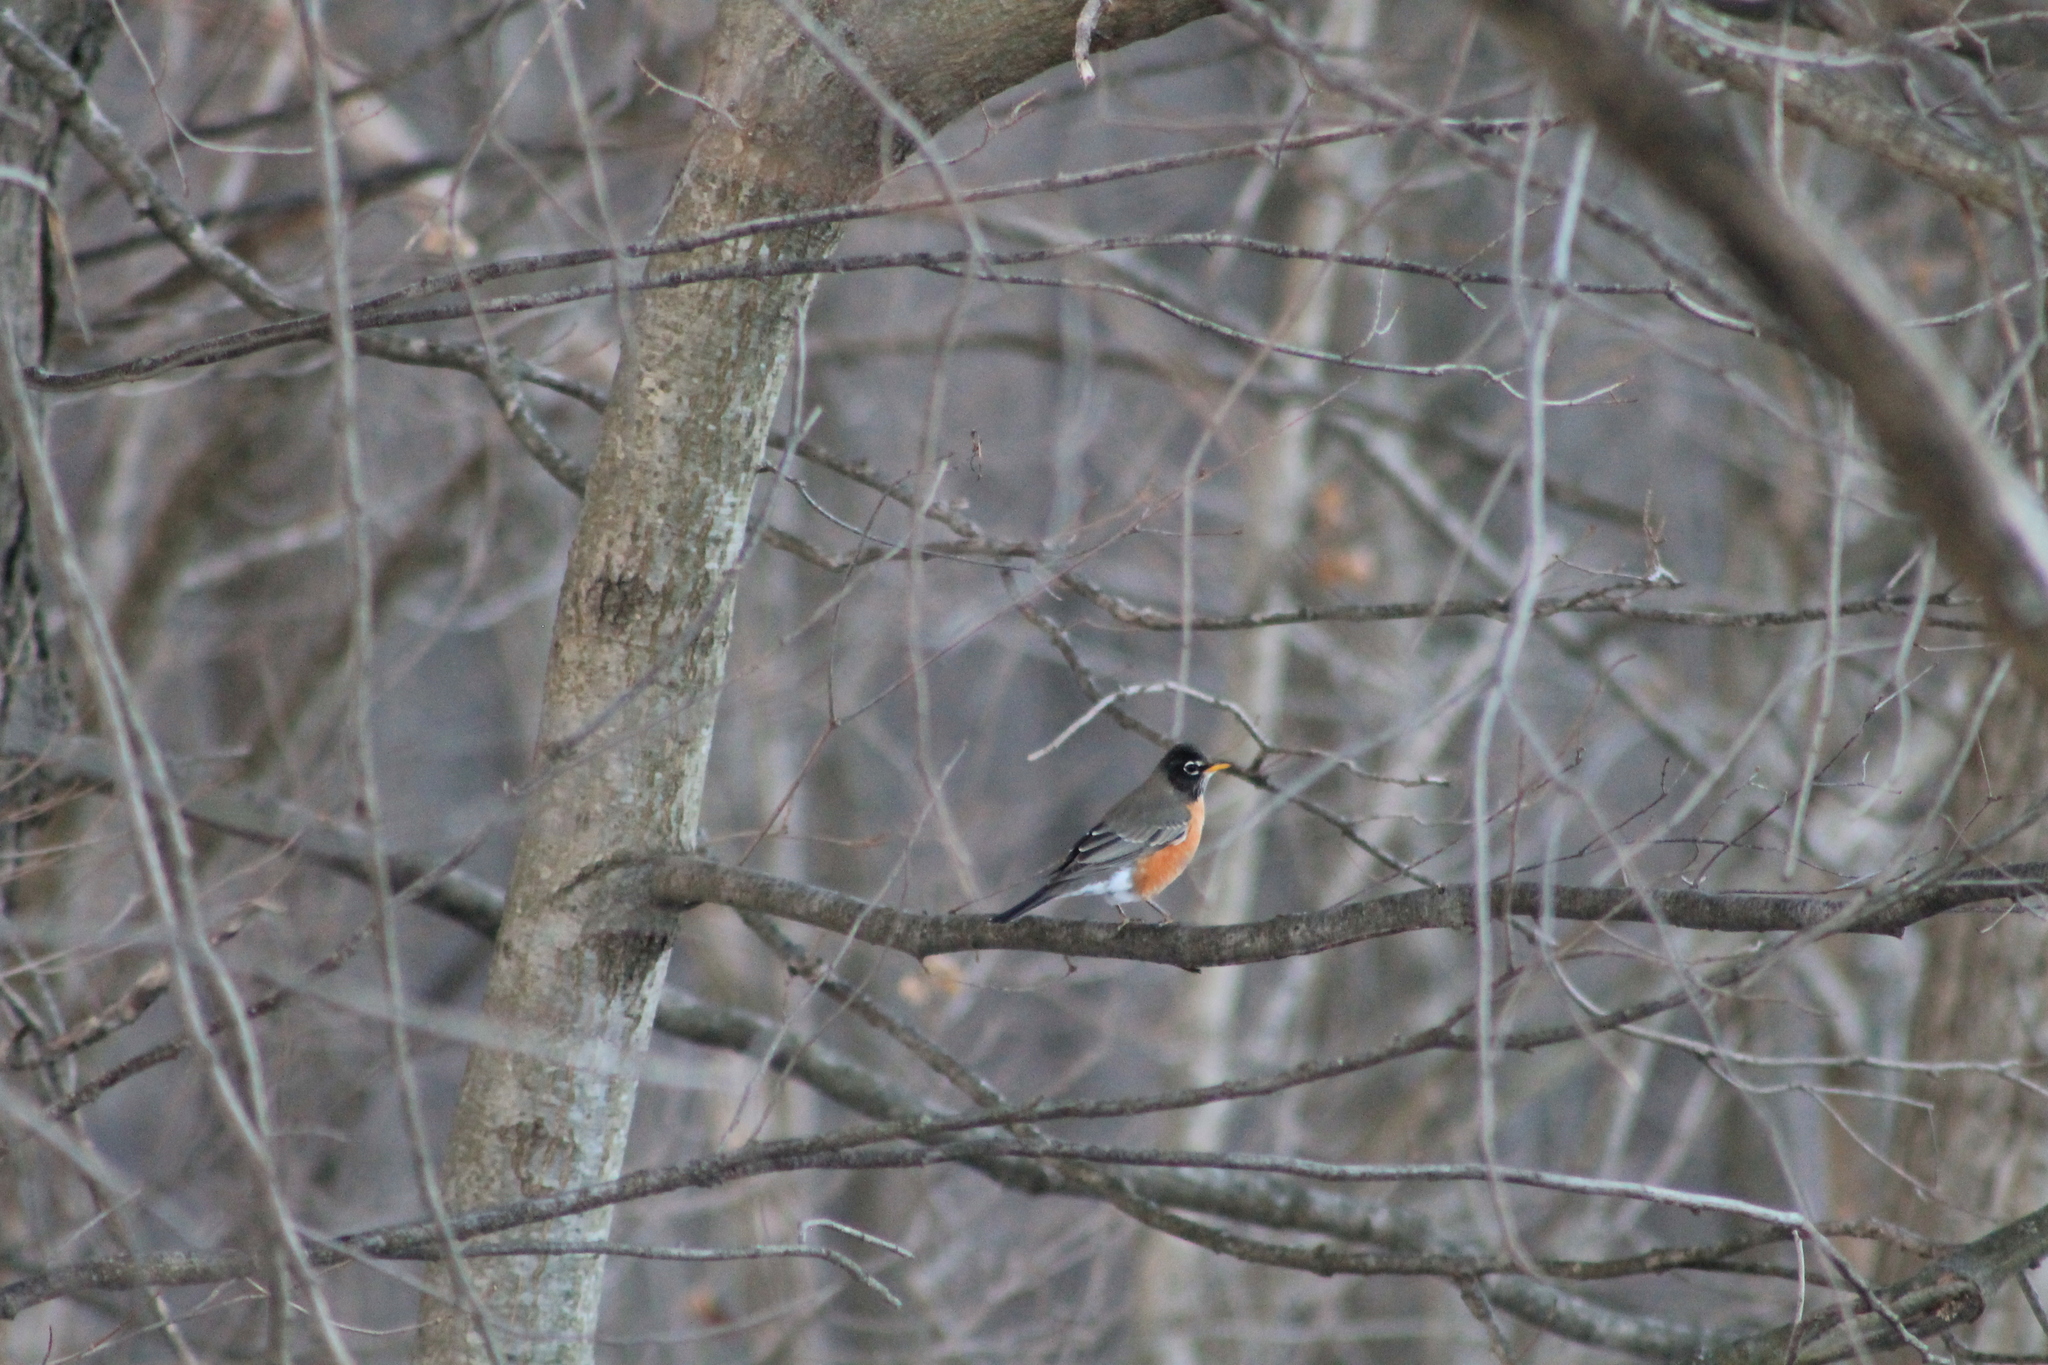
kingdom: Animalia
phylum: Chordata
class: Aves
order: Passeriformes
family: Turdidae
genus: Turdus
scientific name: Turdus migratorius
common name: American robin
